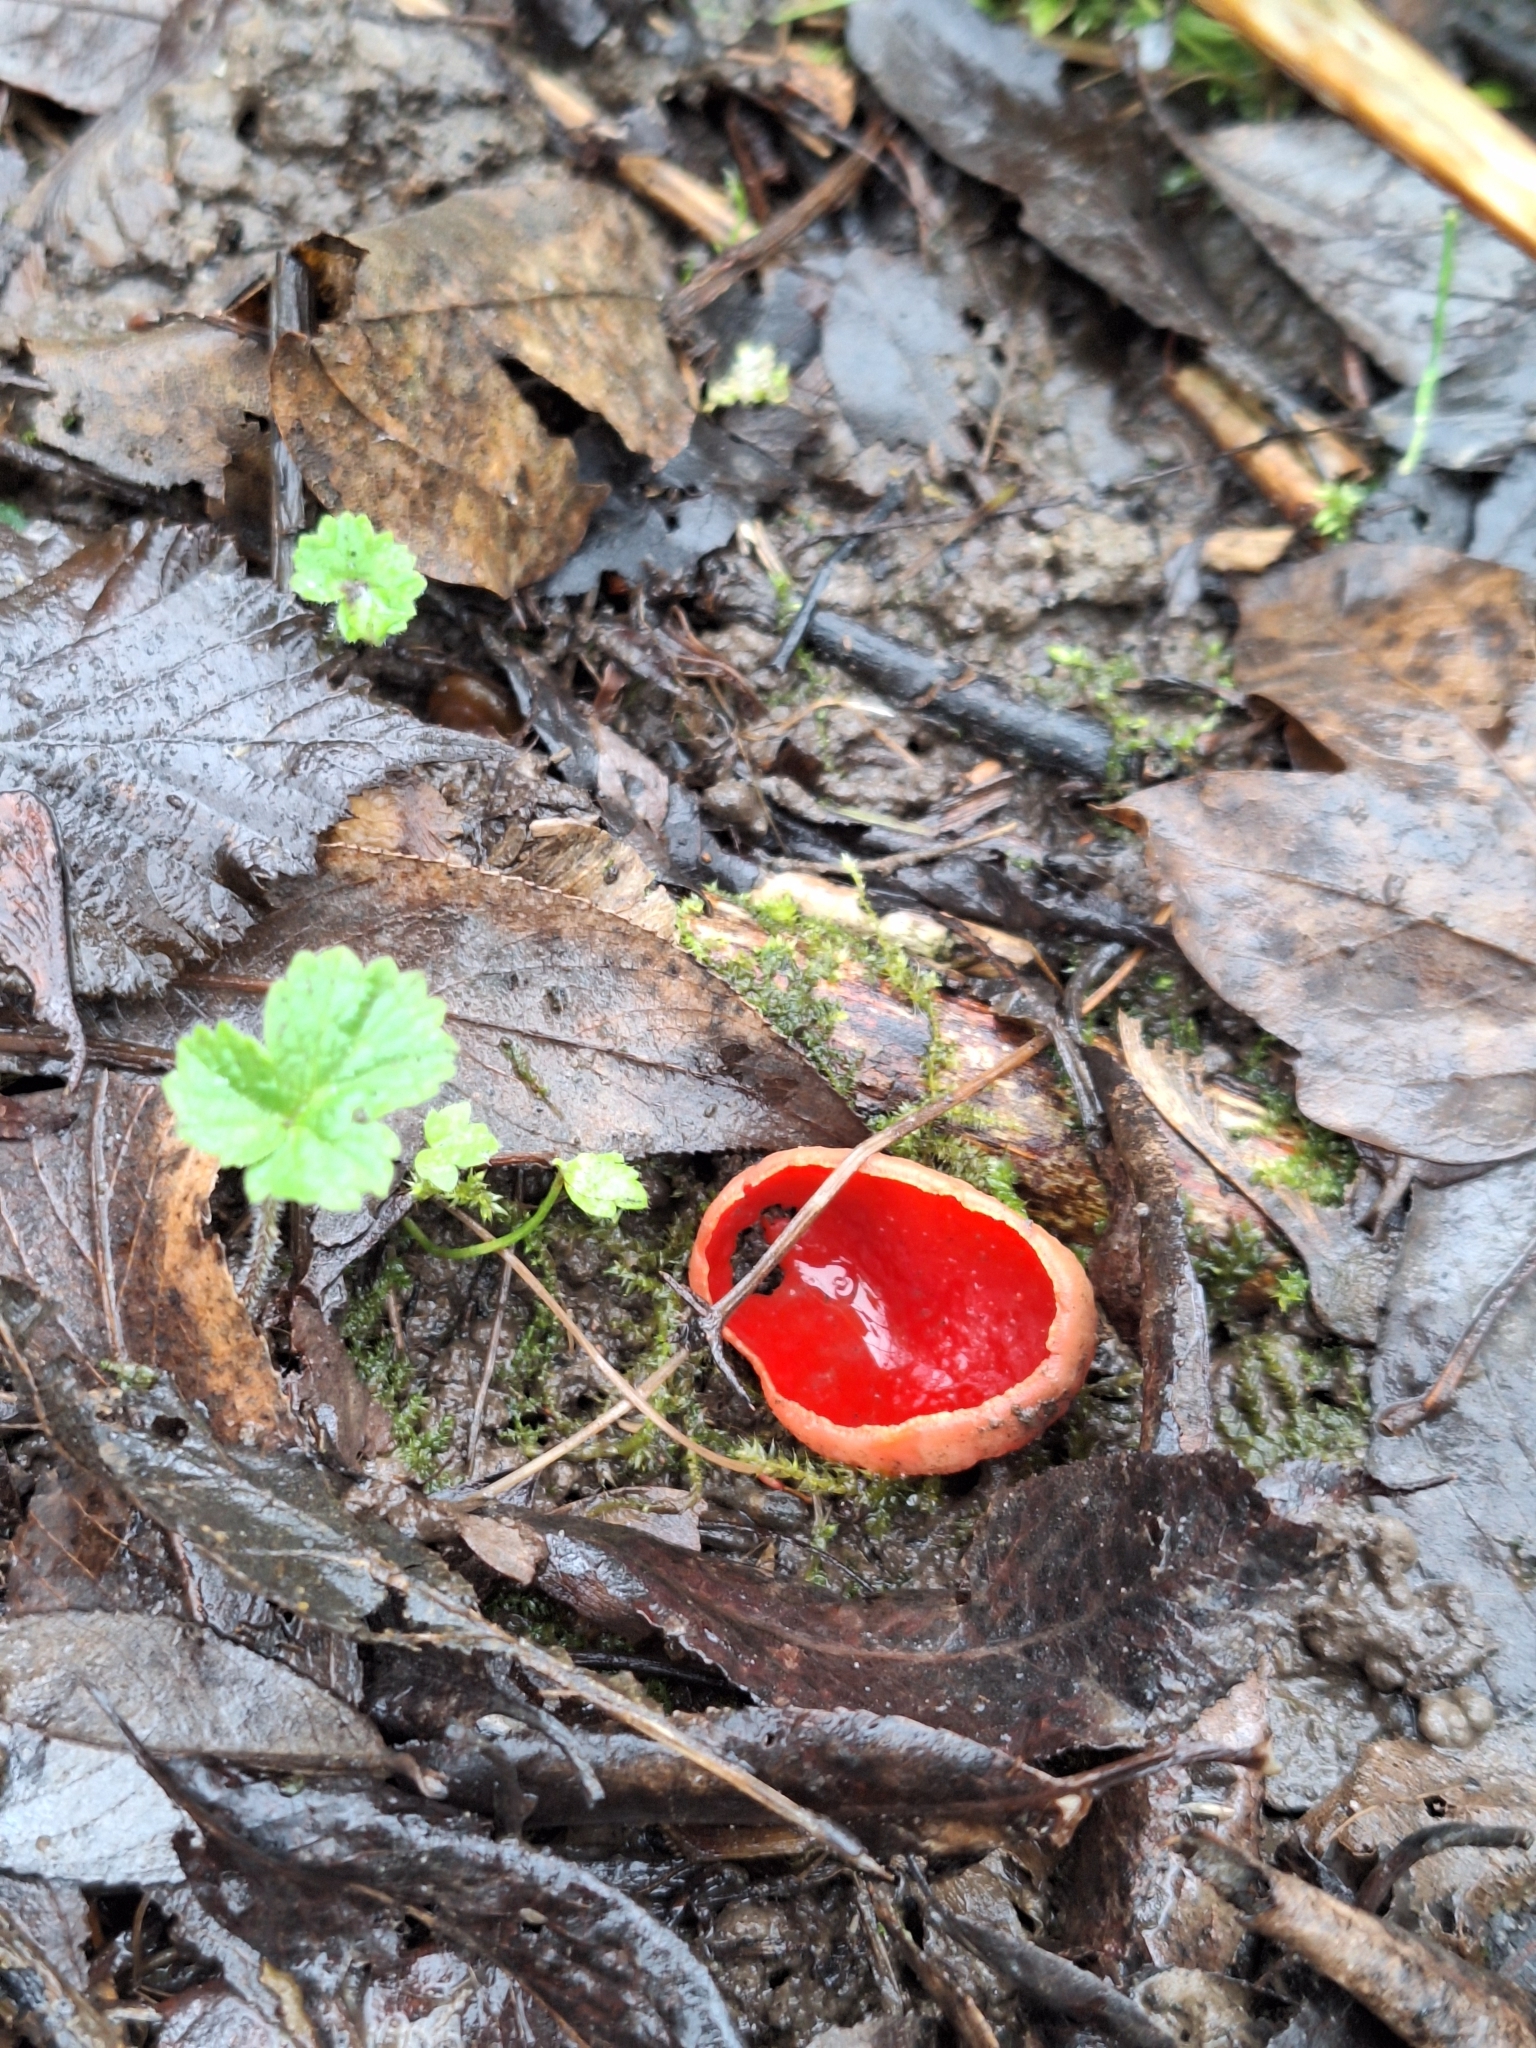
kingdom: Fungi
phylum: Ascomycota
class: Pezizomycetes
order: Pezizales
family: Sarcoscyphaceae
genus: Sarcoscypha
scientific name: Sarcoscypha
